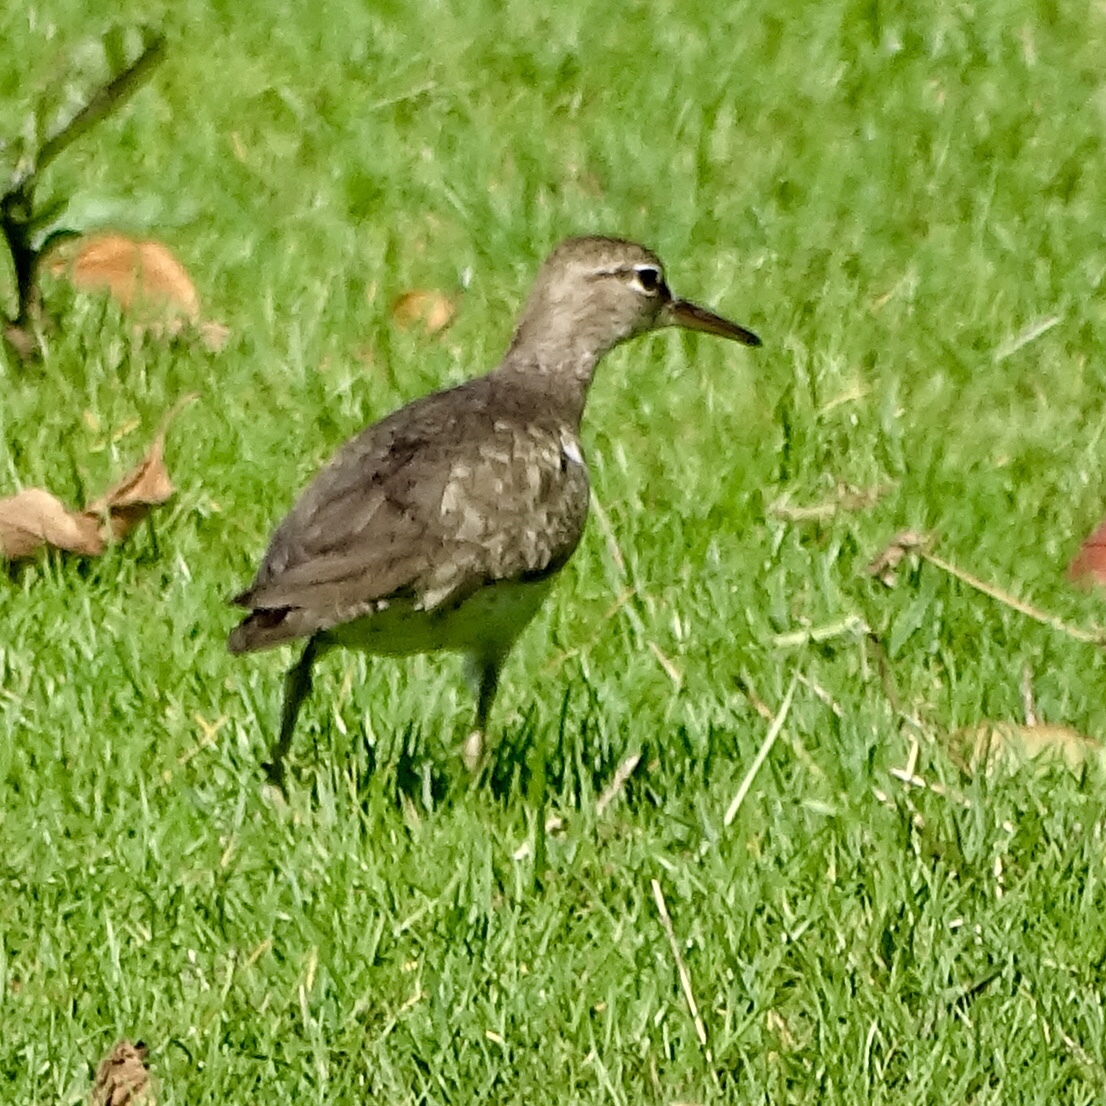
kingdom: Animalia
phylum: Chordata
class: Aves
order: Charadriiformes
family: Scolopacidae
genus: Actitis
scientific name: Actitis macularius
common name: Spotted sandpiper
